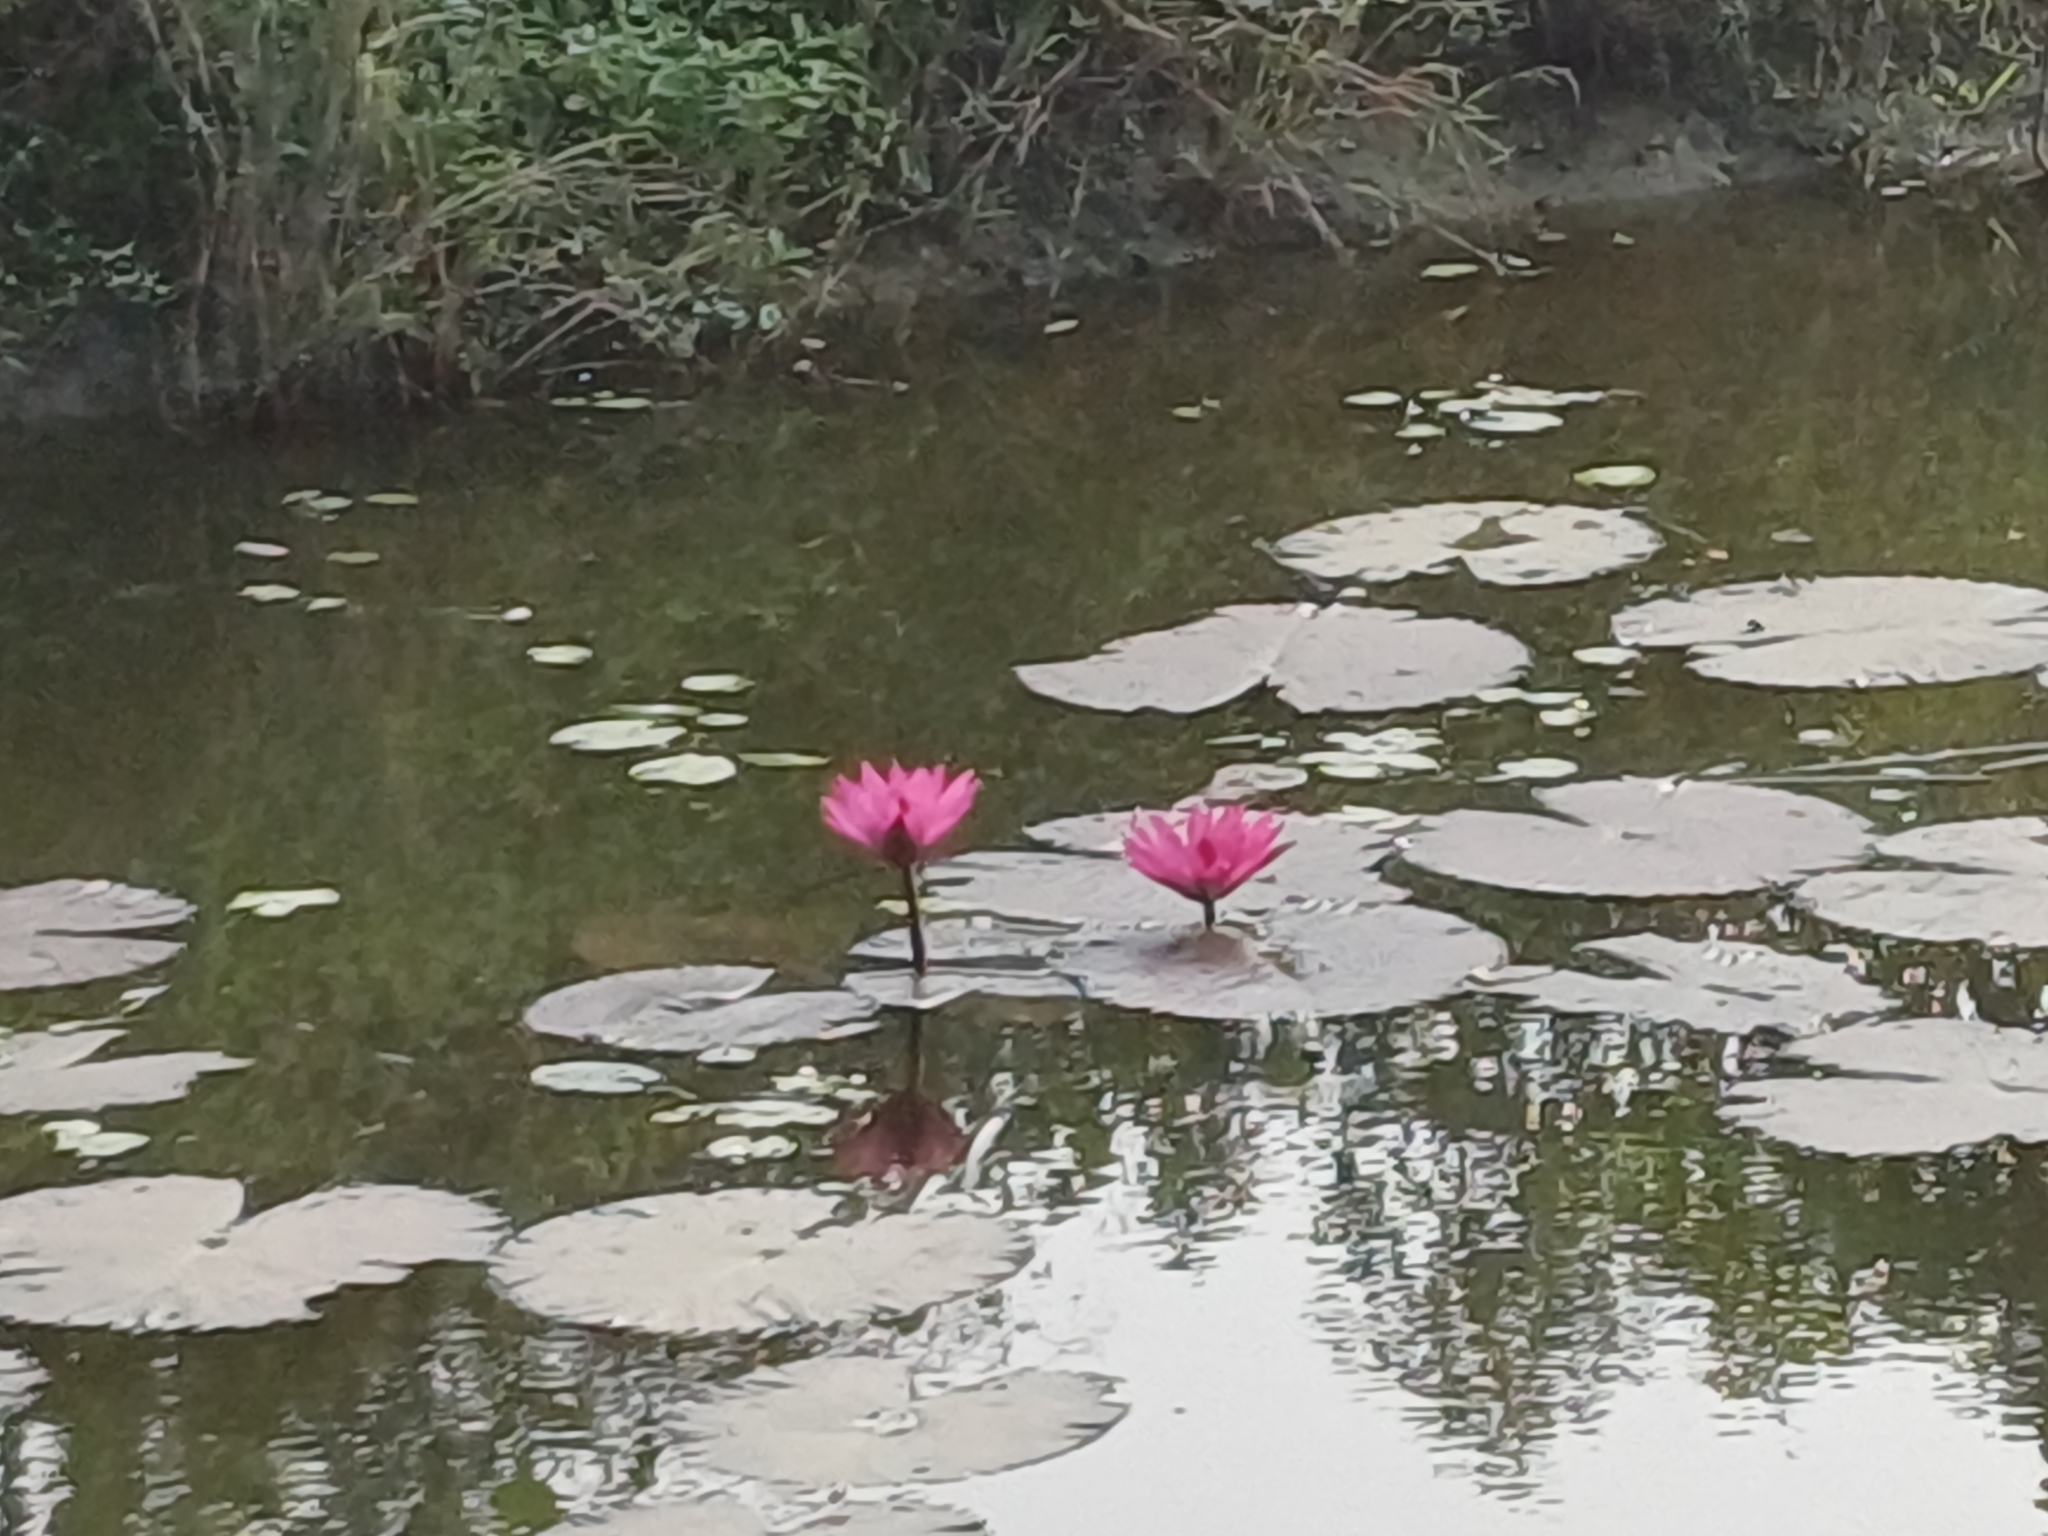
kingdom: Plantae
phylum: Tracheophyta
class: Magnoliopsida
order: Nymphaeales
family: Nymphaeaceae
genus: Nymphaea
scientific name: Nymphaea rubra
